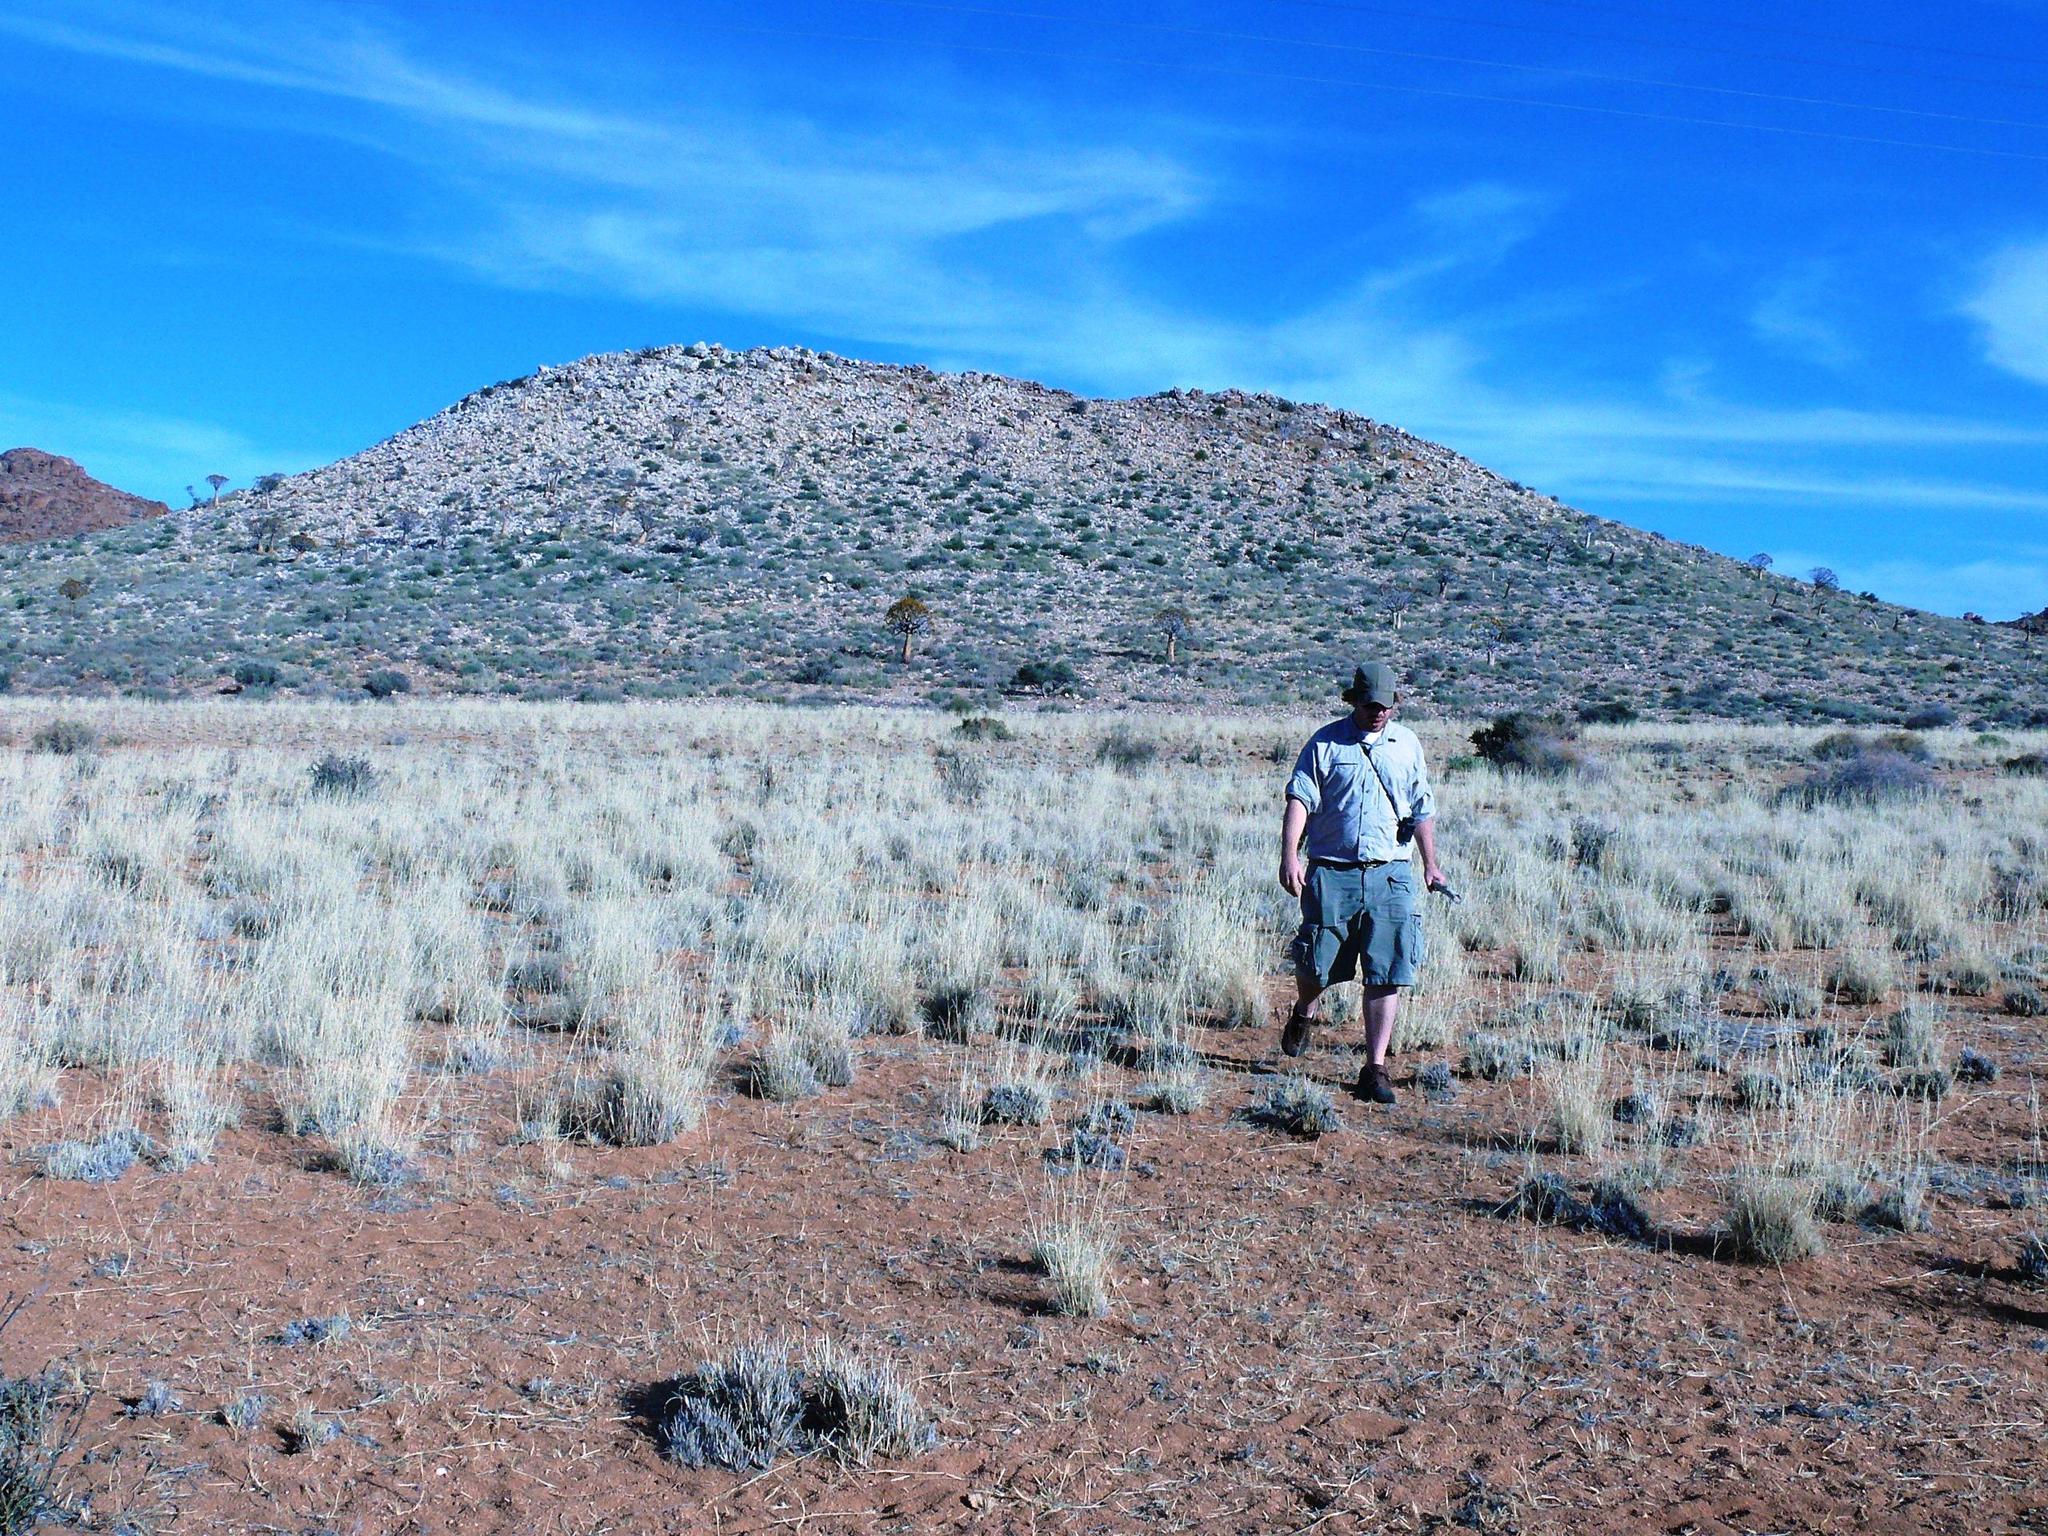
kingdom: Plantae
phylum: Tracheophyta
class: Liliopsida
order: Asparagales
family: Asphodelaceae
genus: Aloidendron
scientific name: Aloidendron dichotomum
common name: Quiver tree
